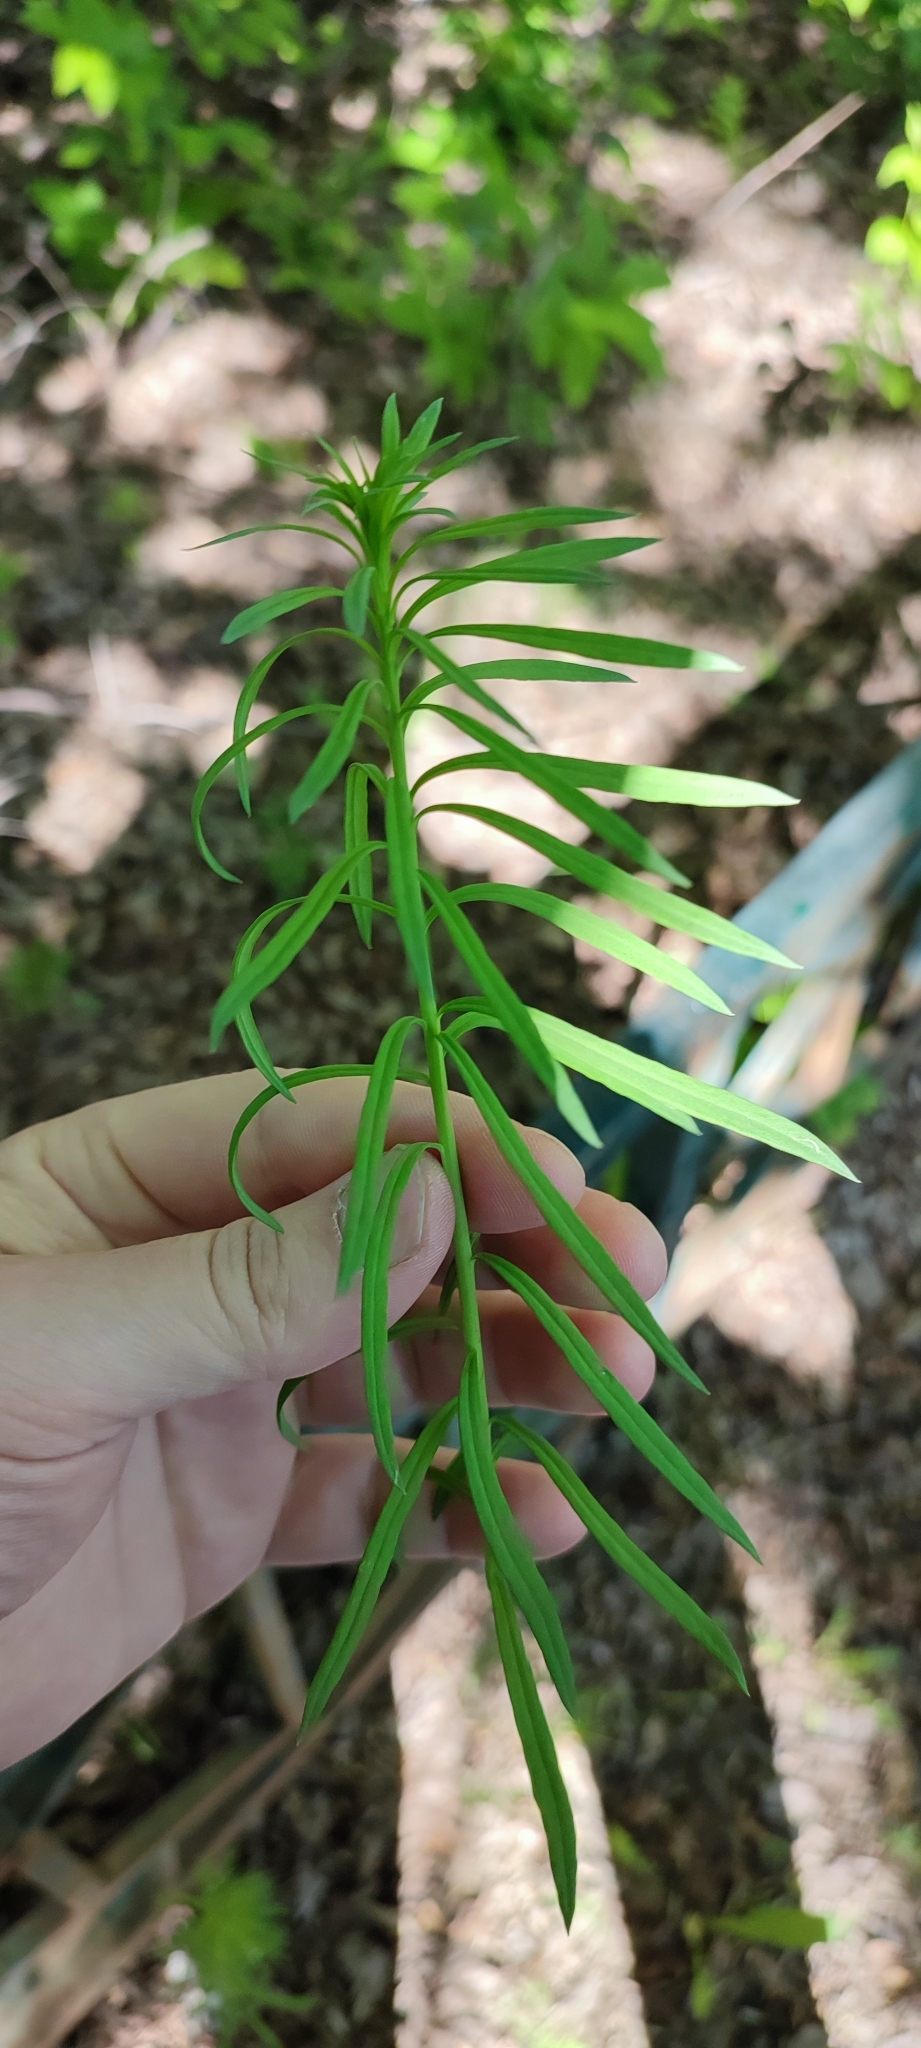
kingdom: Plantae
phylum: Tracheophyta
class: Magnoliopsida
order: Lamiales
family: Plantaginaceae
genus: Linaria
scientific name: Linaria vulgaris
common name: Butter and eggs
